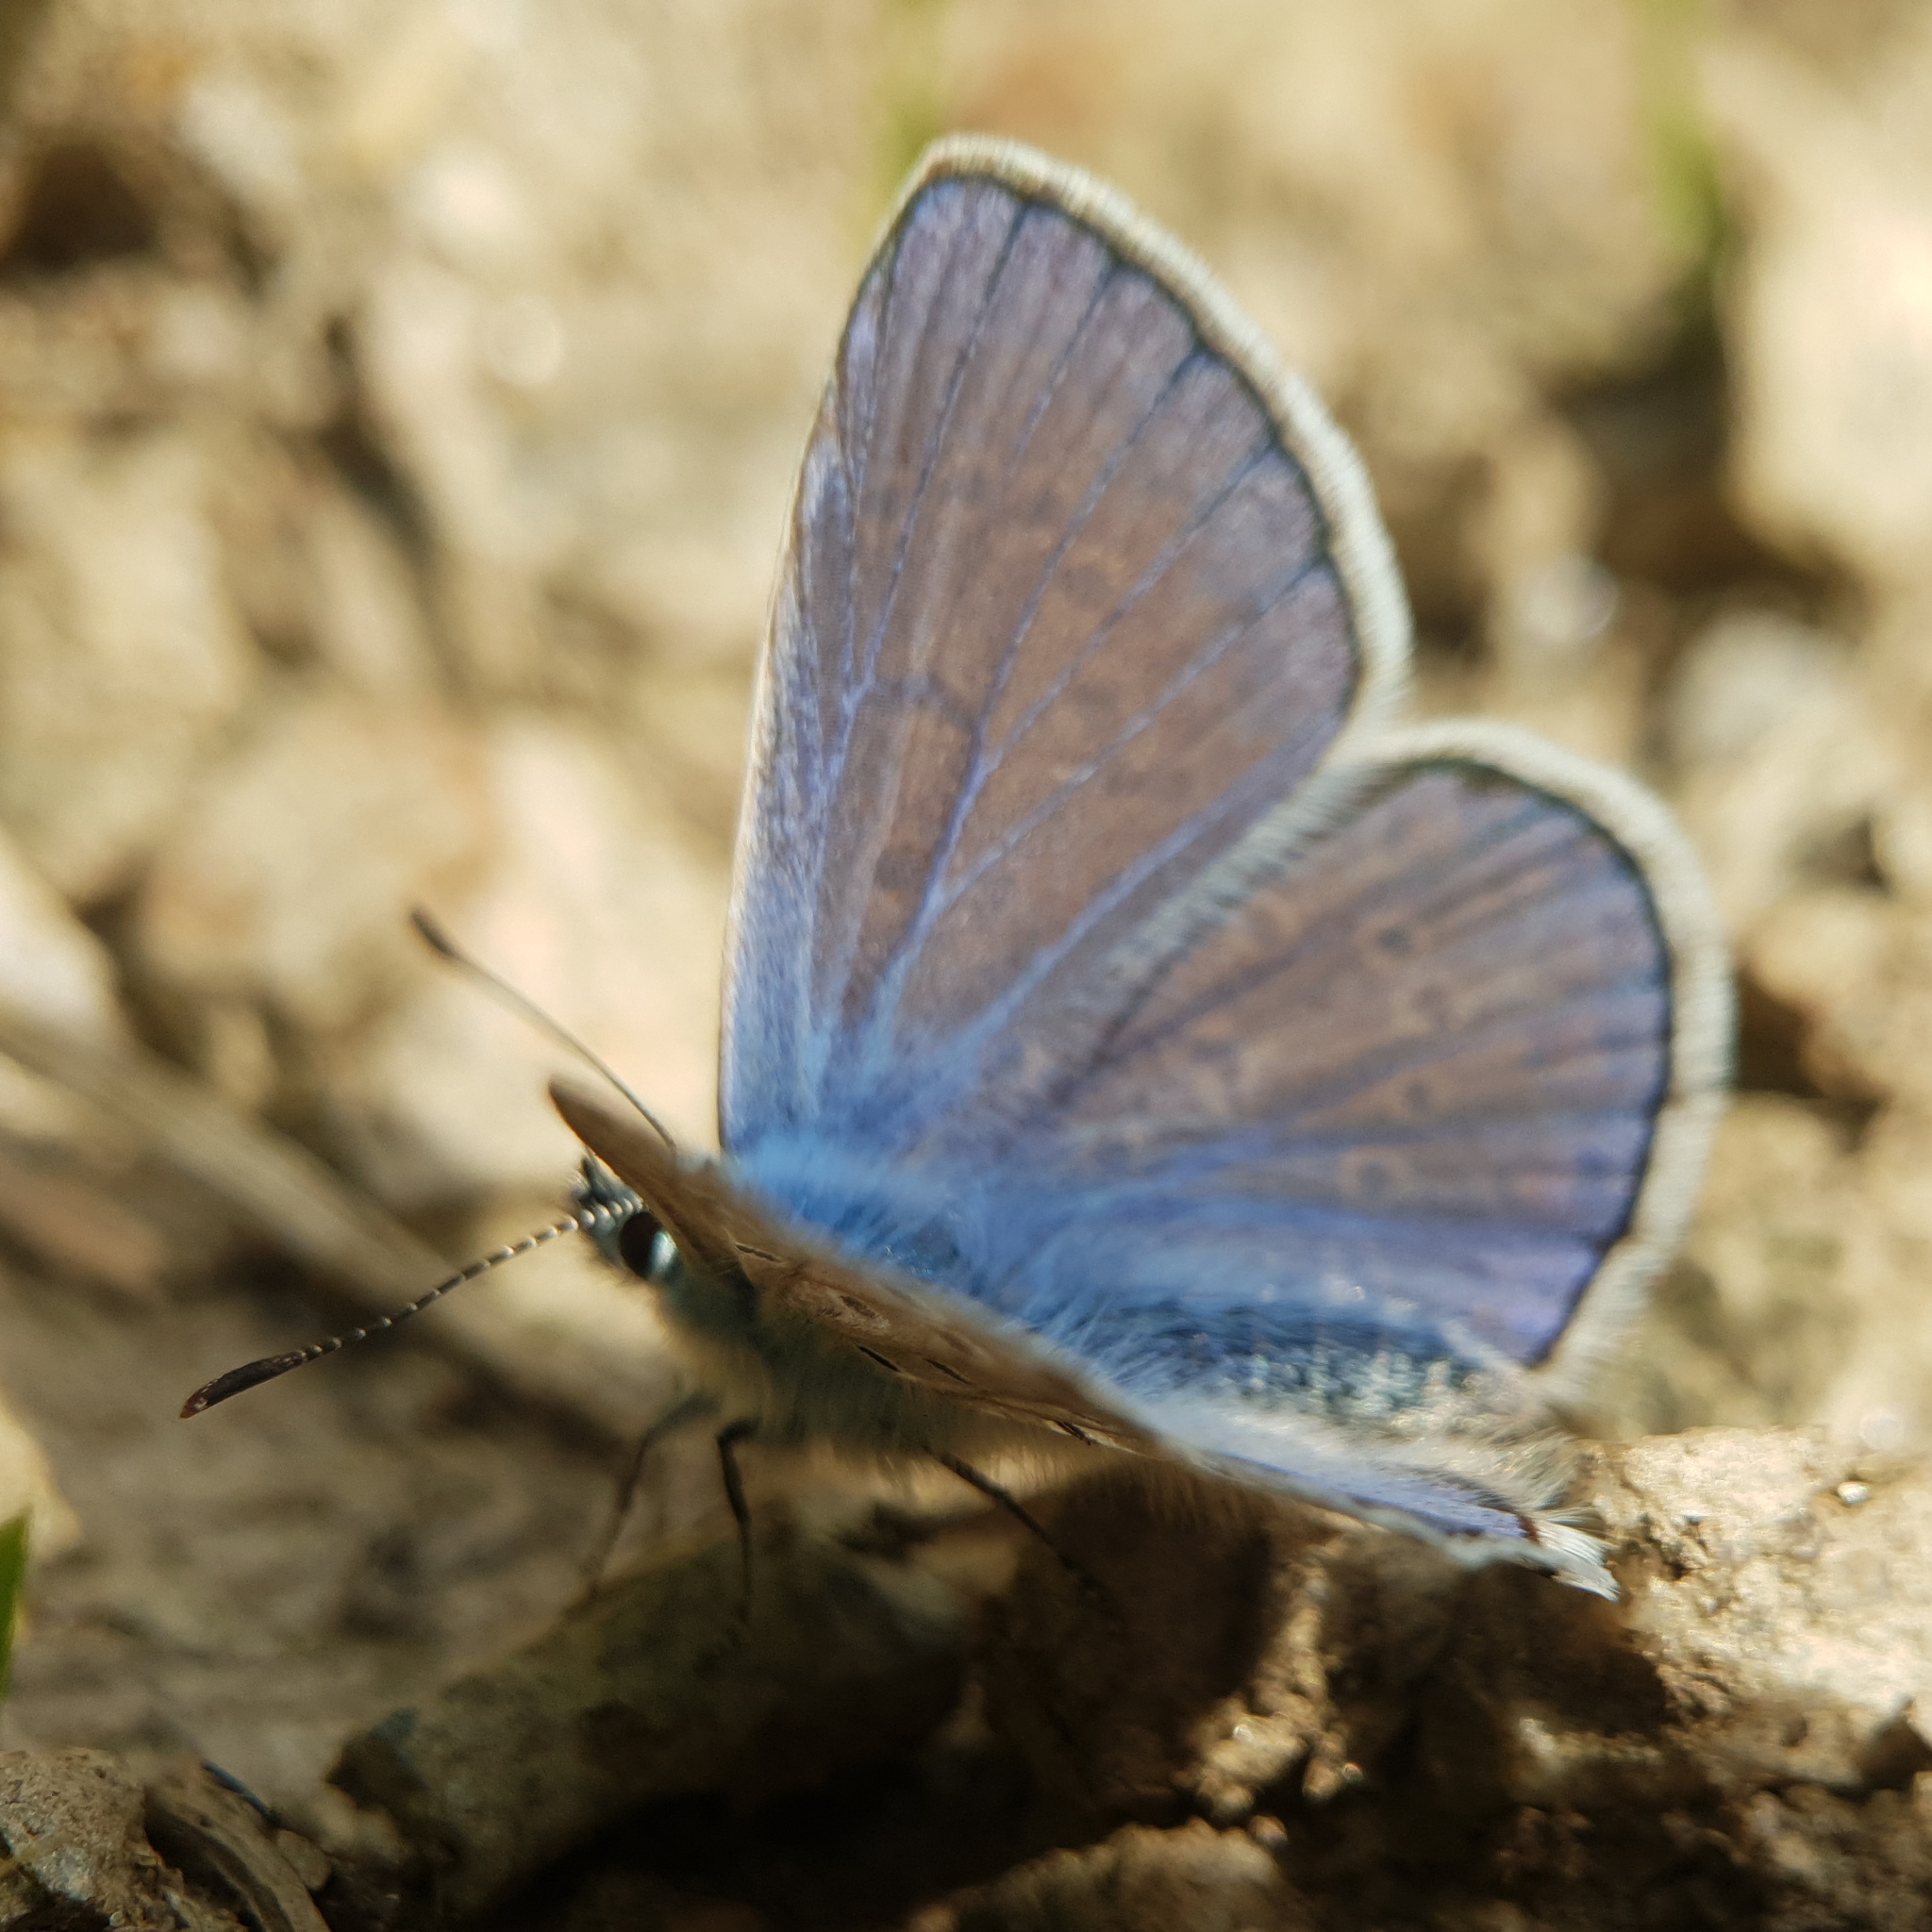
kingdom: Animalia
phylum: Arthropoda
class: Insecta
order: Lepidoptera
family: Lycaenidae
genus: Polyommatus
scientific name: Polyommatus icarus
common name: Common blue
